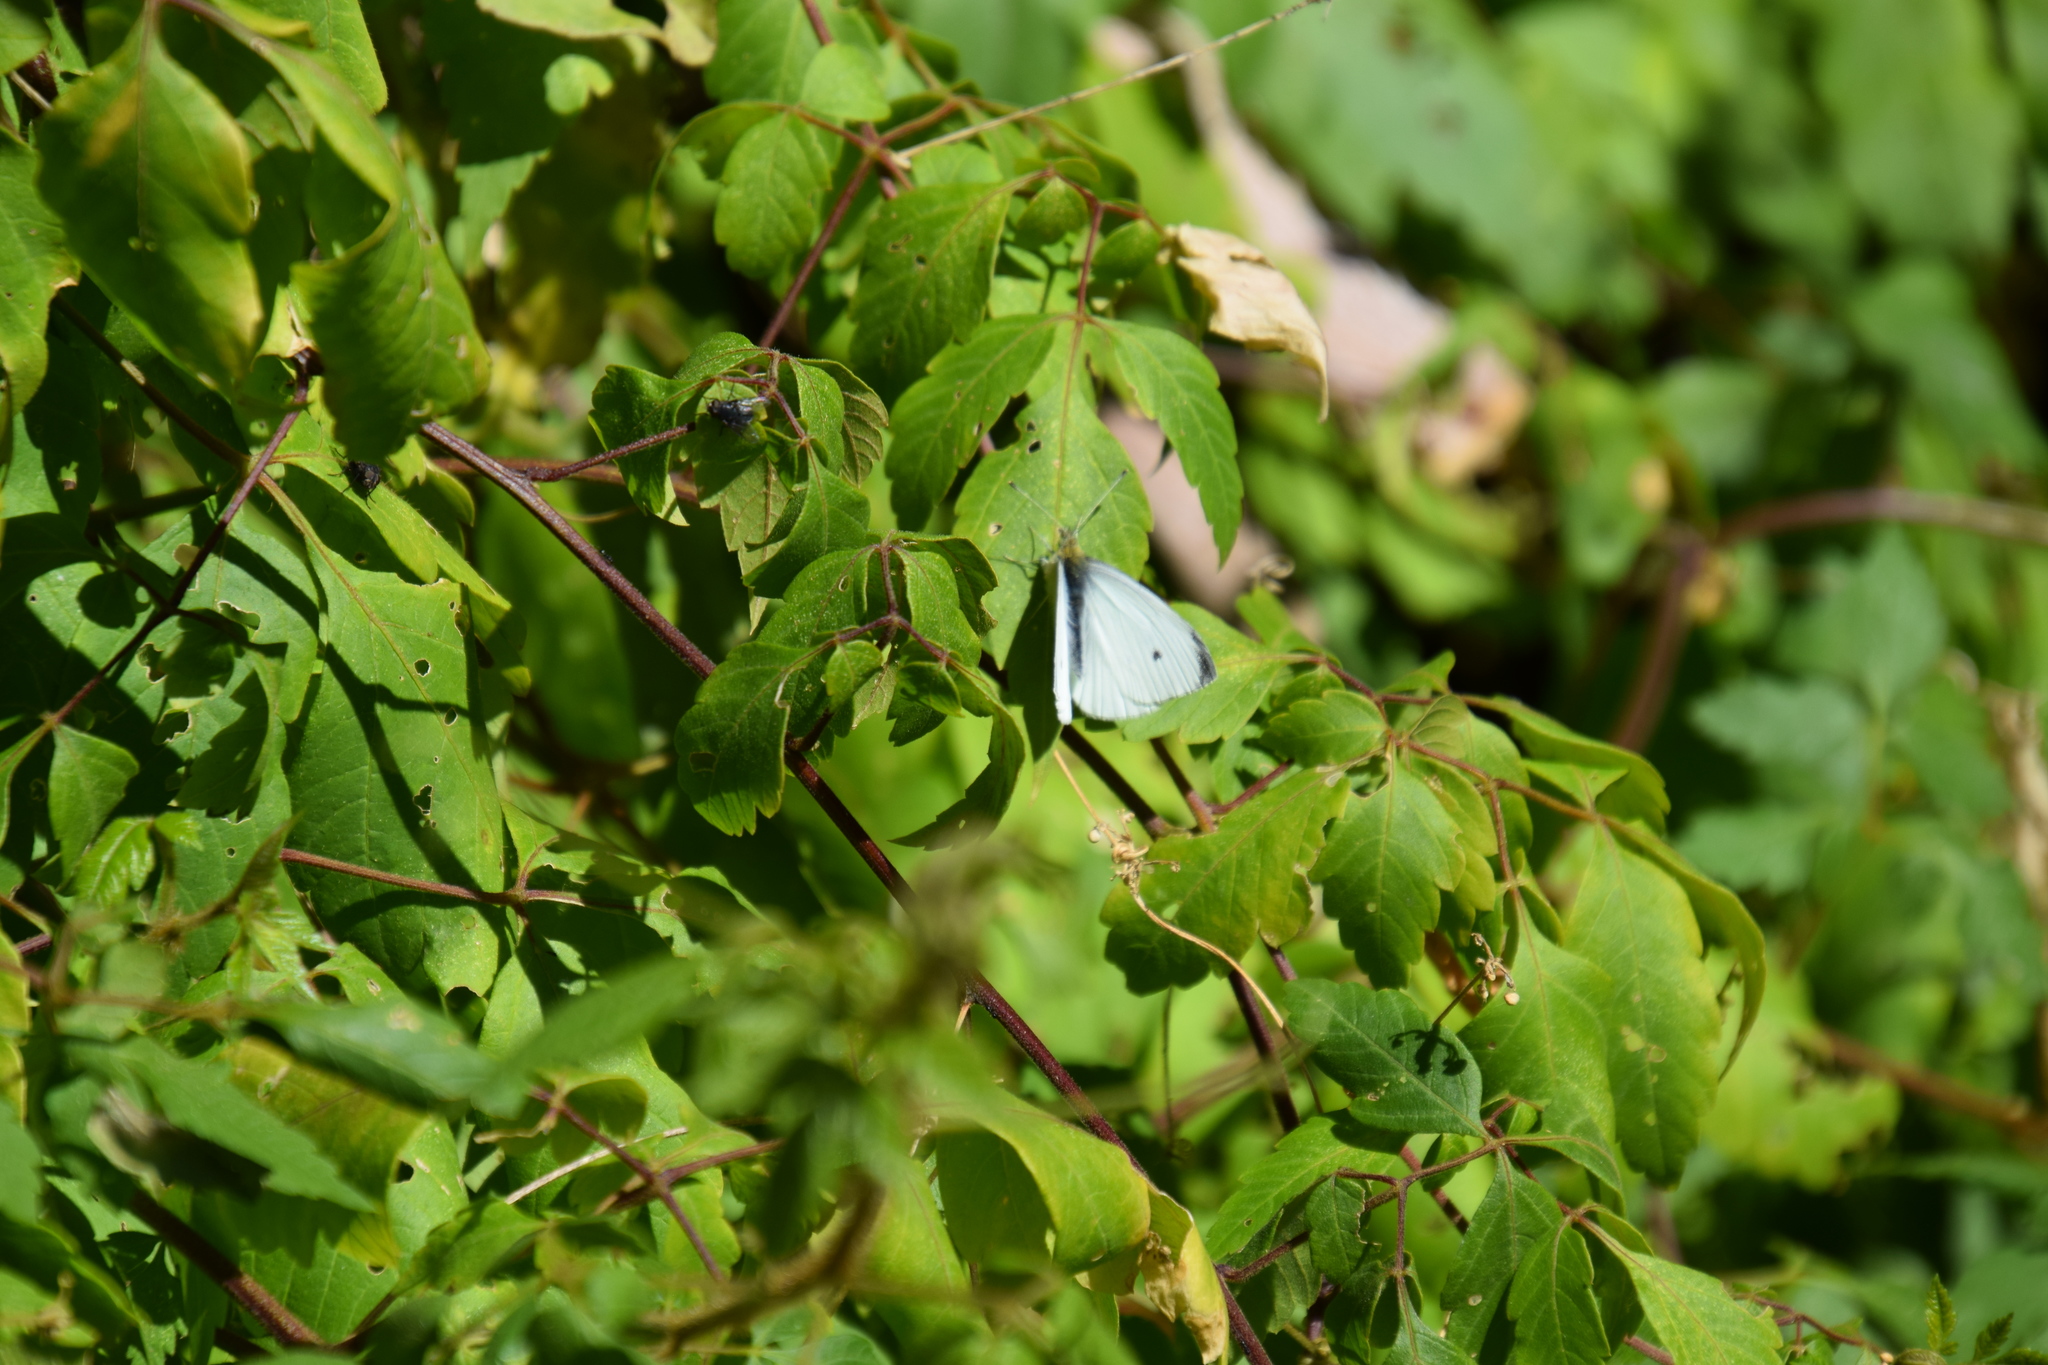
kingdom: Animalia
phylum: Arthropoda
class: Insecta
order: Lepidoptera
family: Pieridae
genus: Pieris
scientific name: Pieris rapae
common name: Small white
